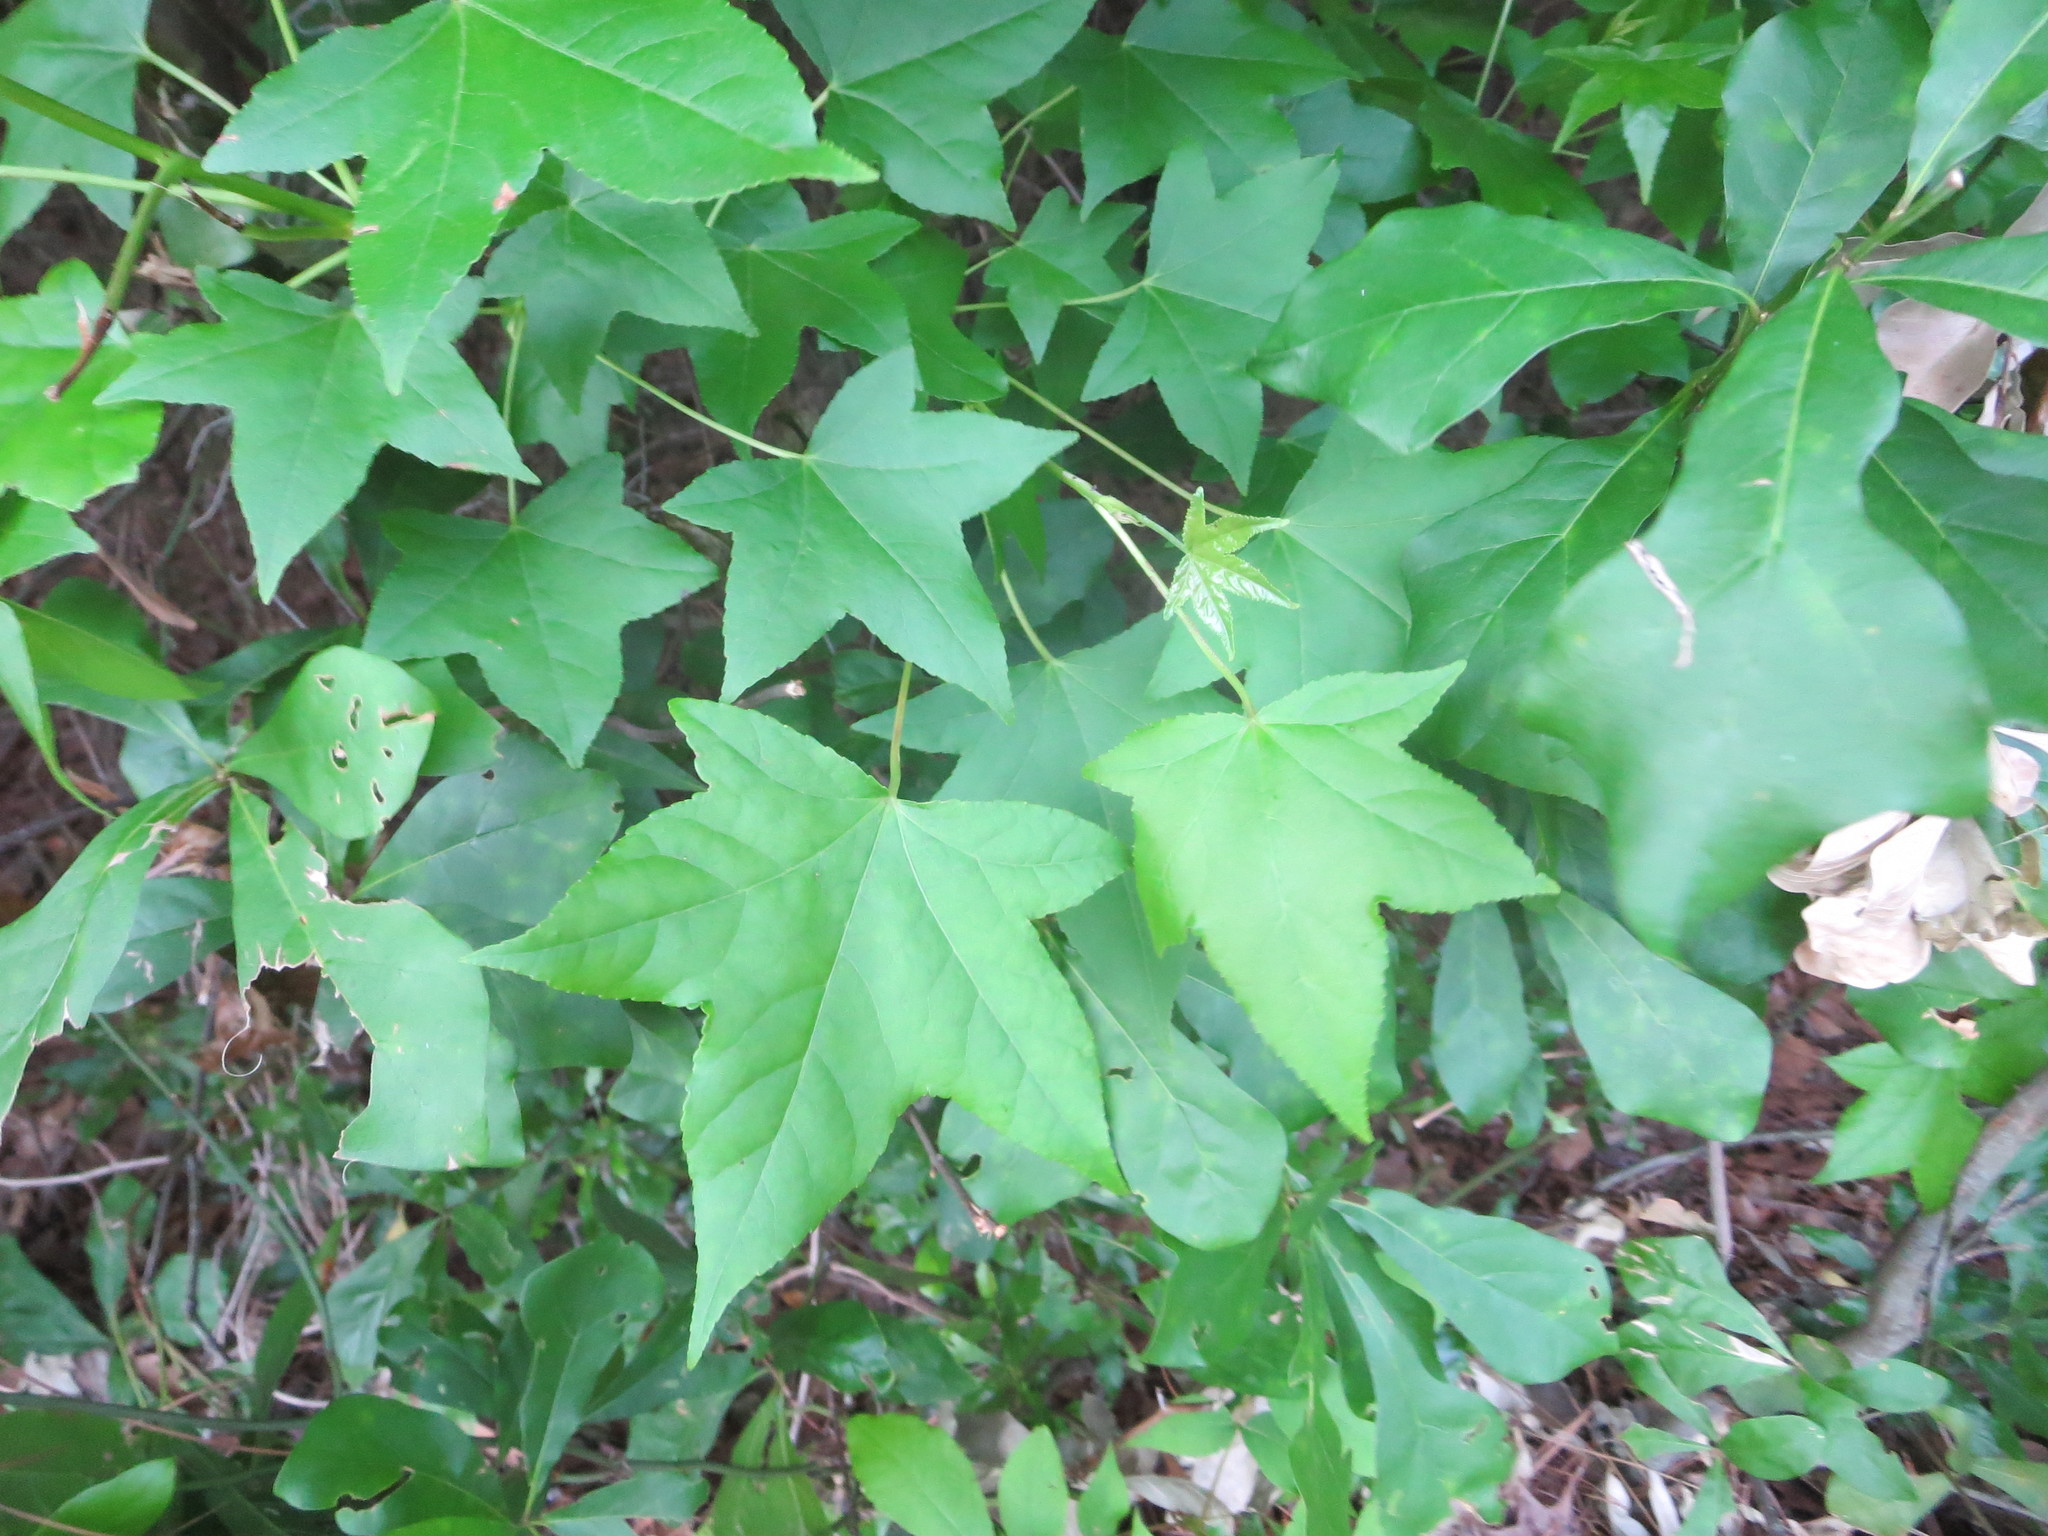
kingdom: Plantae
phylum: Tracheophyta
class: Magnoliopsida
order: Saxifragales
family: Altingiaceae
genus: Liquidambar
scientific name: Liquidambar styraciflua
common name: Sweet gum
